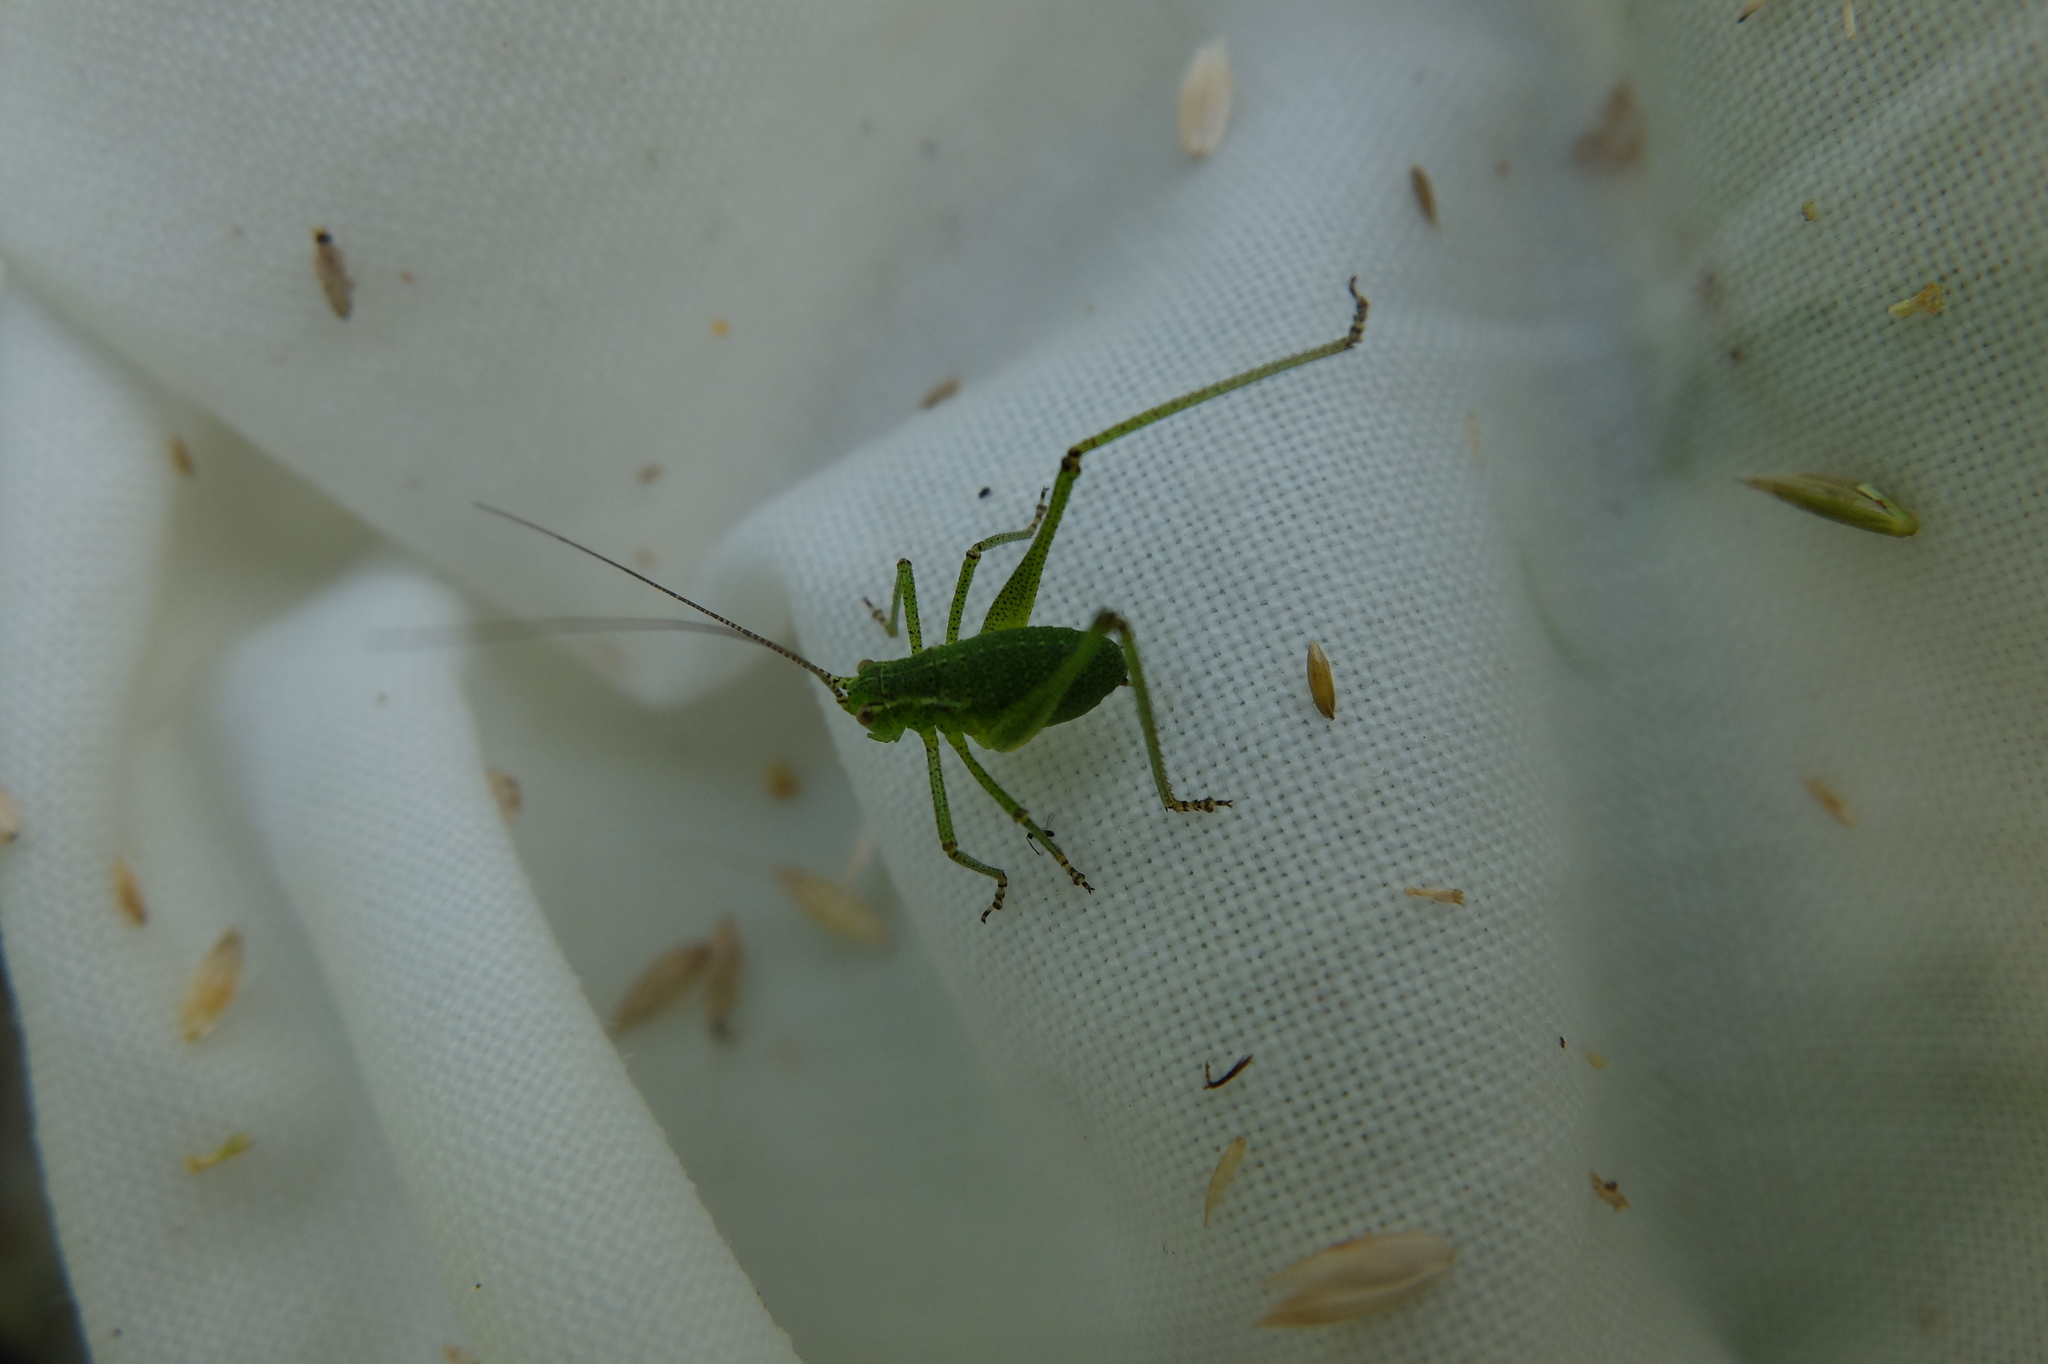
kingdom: Animalia
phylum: Arthropoda
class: Insecta
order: Orthoptera
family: Tettigoniidae
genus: Leptophyes
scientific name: Leptophyes punctatissima
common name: Speckled bush-cricket
